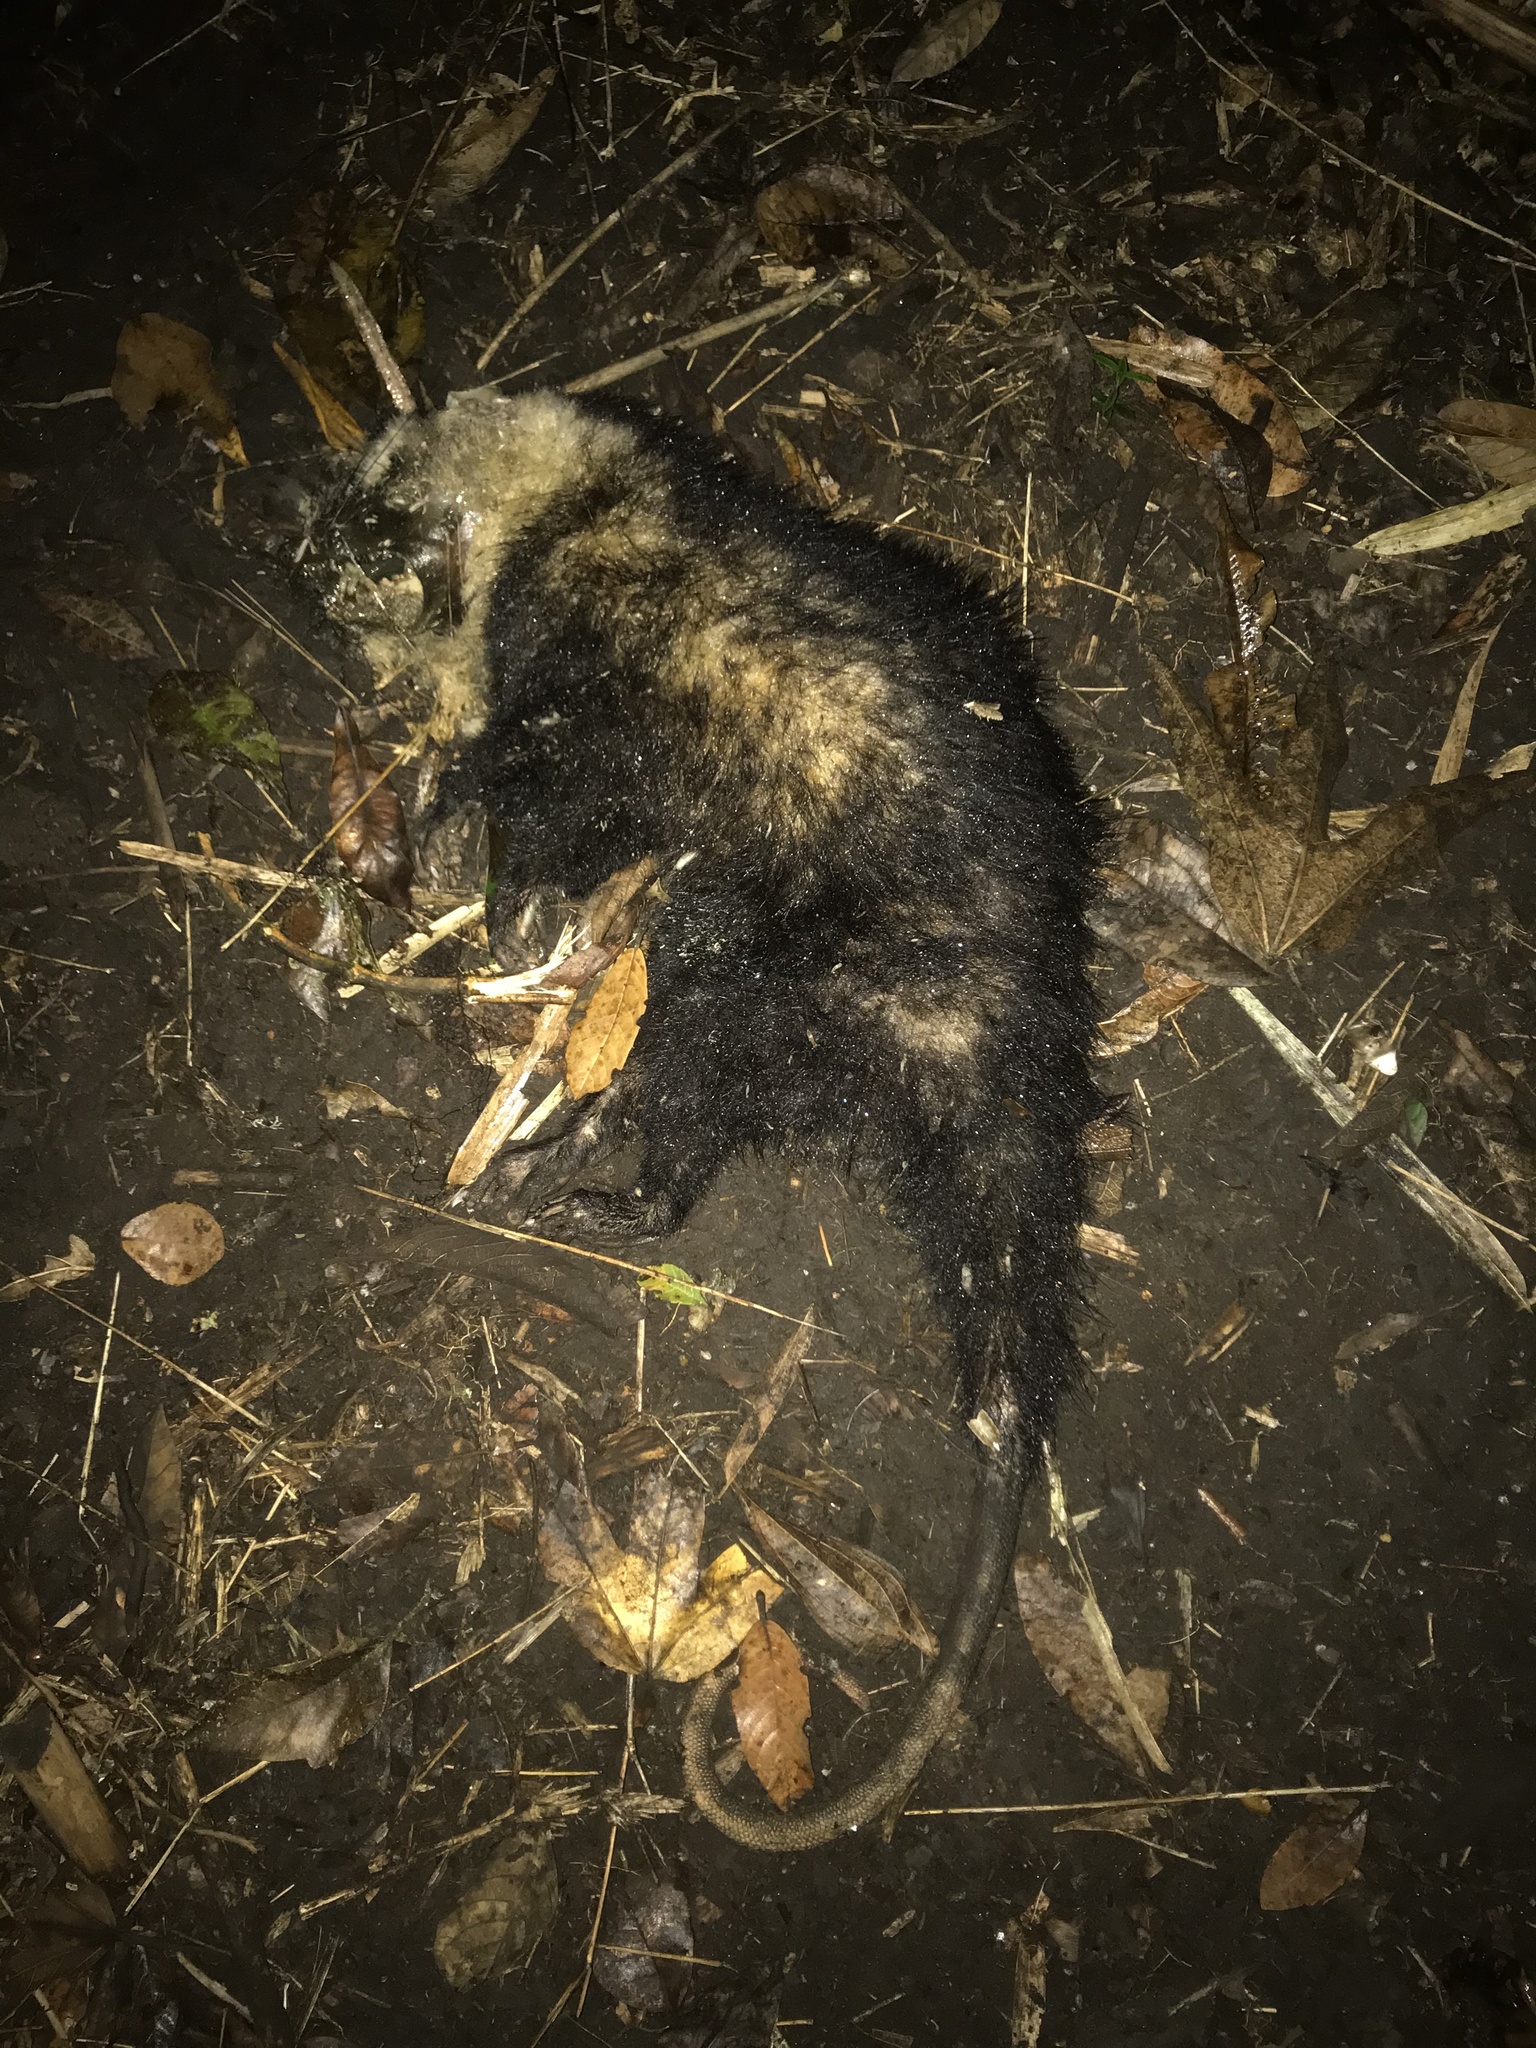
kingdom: Animalia
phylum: Chordata
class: Mammalia
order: Didelphimorphia
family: Didelphidae
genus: Didelphis
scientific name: Didelphis marsupialis
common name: Common opossum
